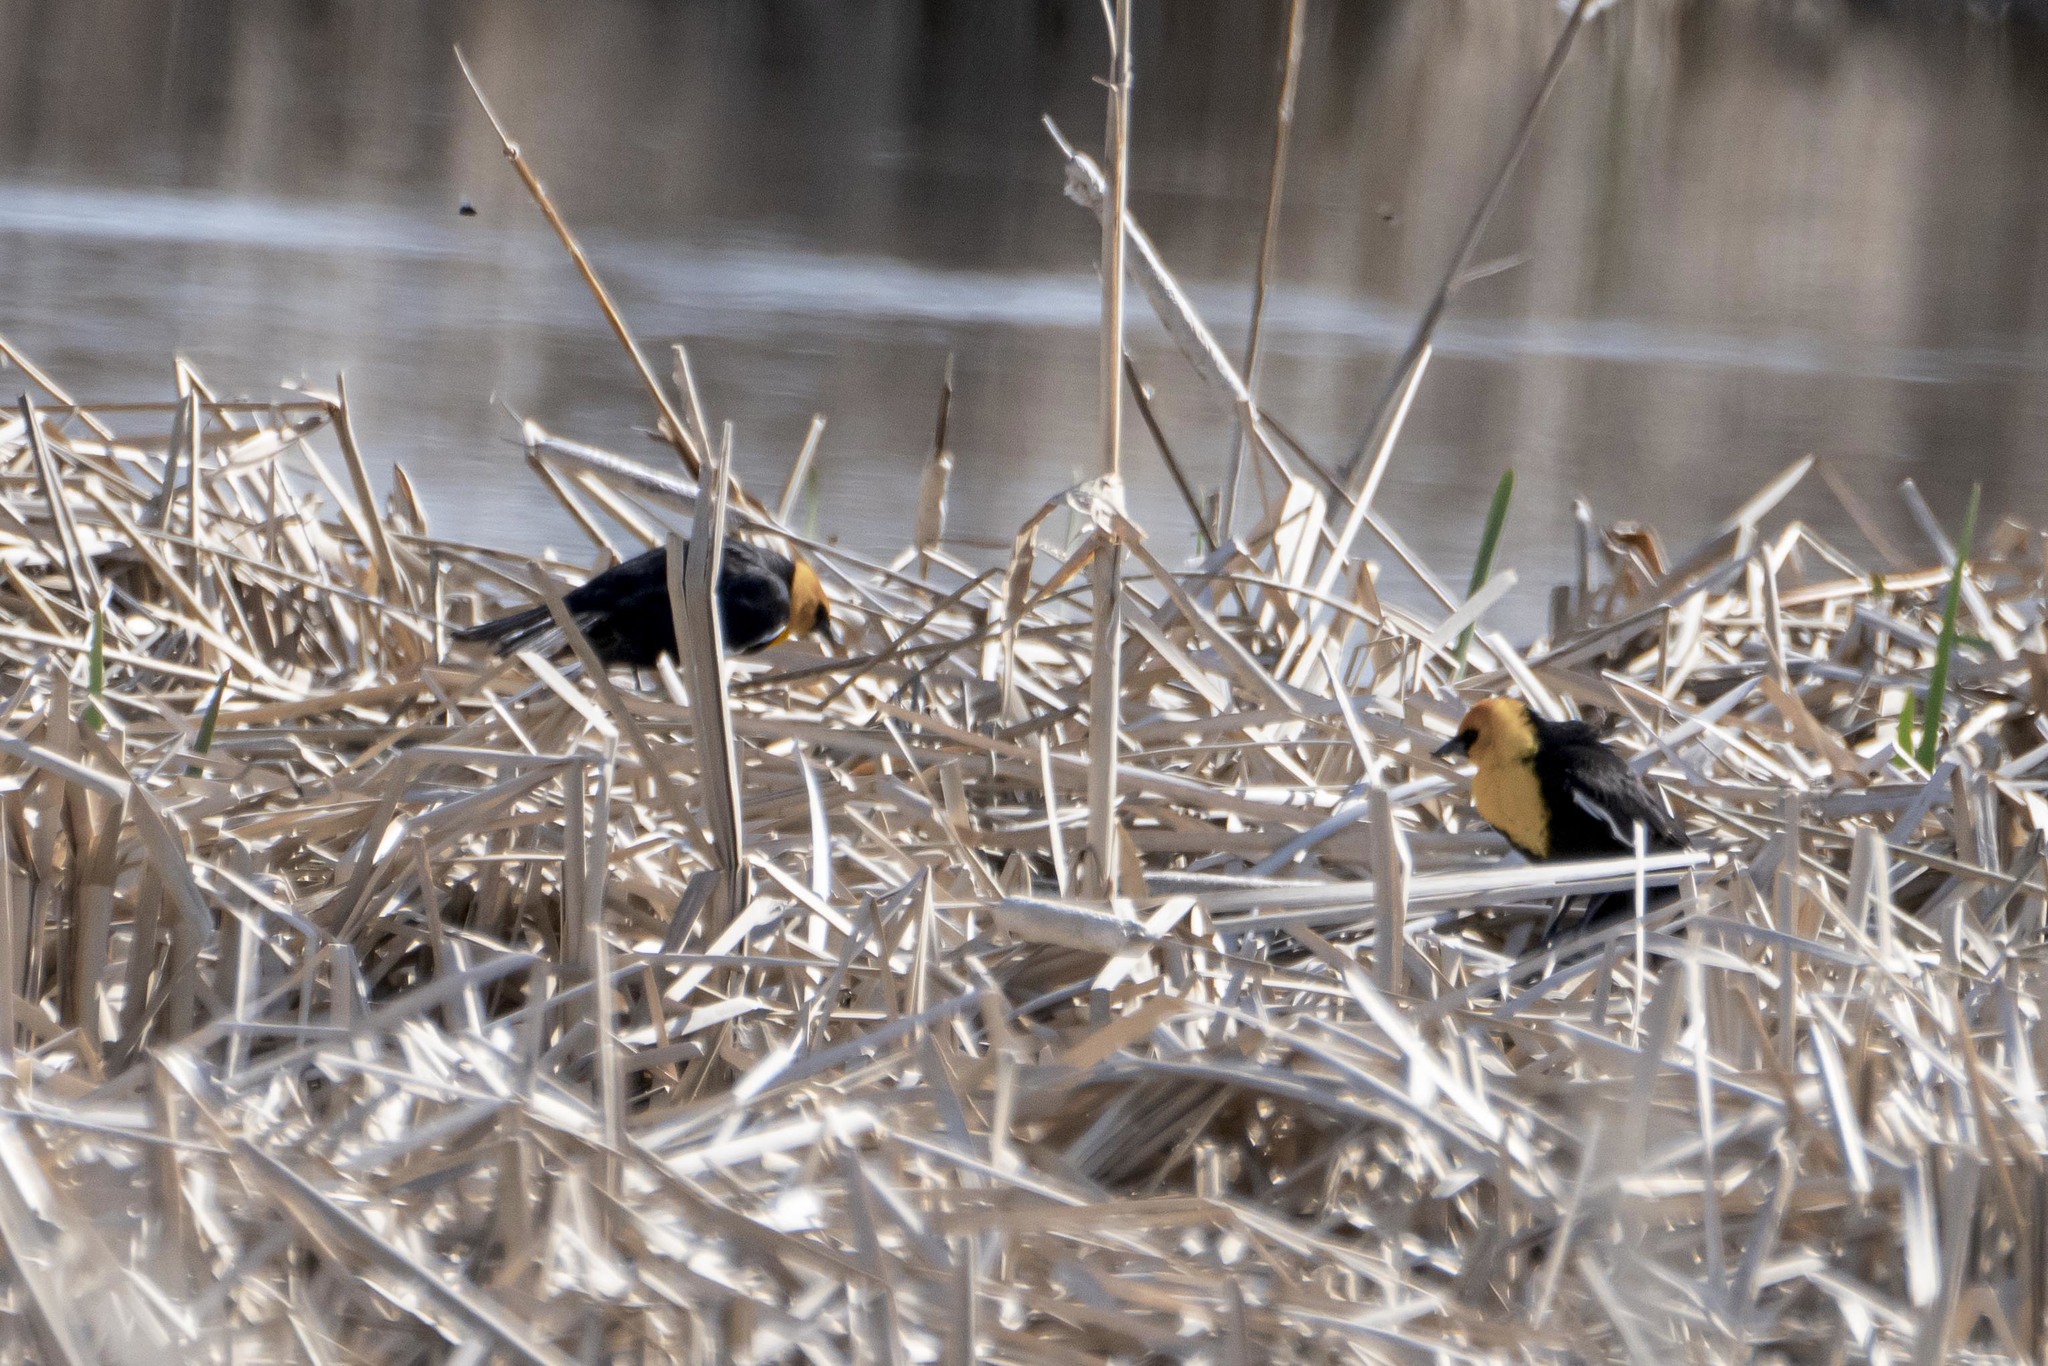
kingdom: Animalia
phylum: Chordata
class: Aves
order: Passeriformes
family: Icteridae
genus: Xanthocephalus
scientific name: Xanthocephalus xanthocephalus
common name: Yellow-headed blackbird
